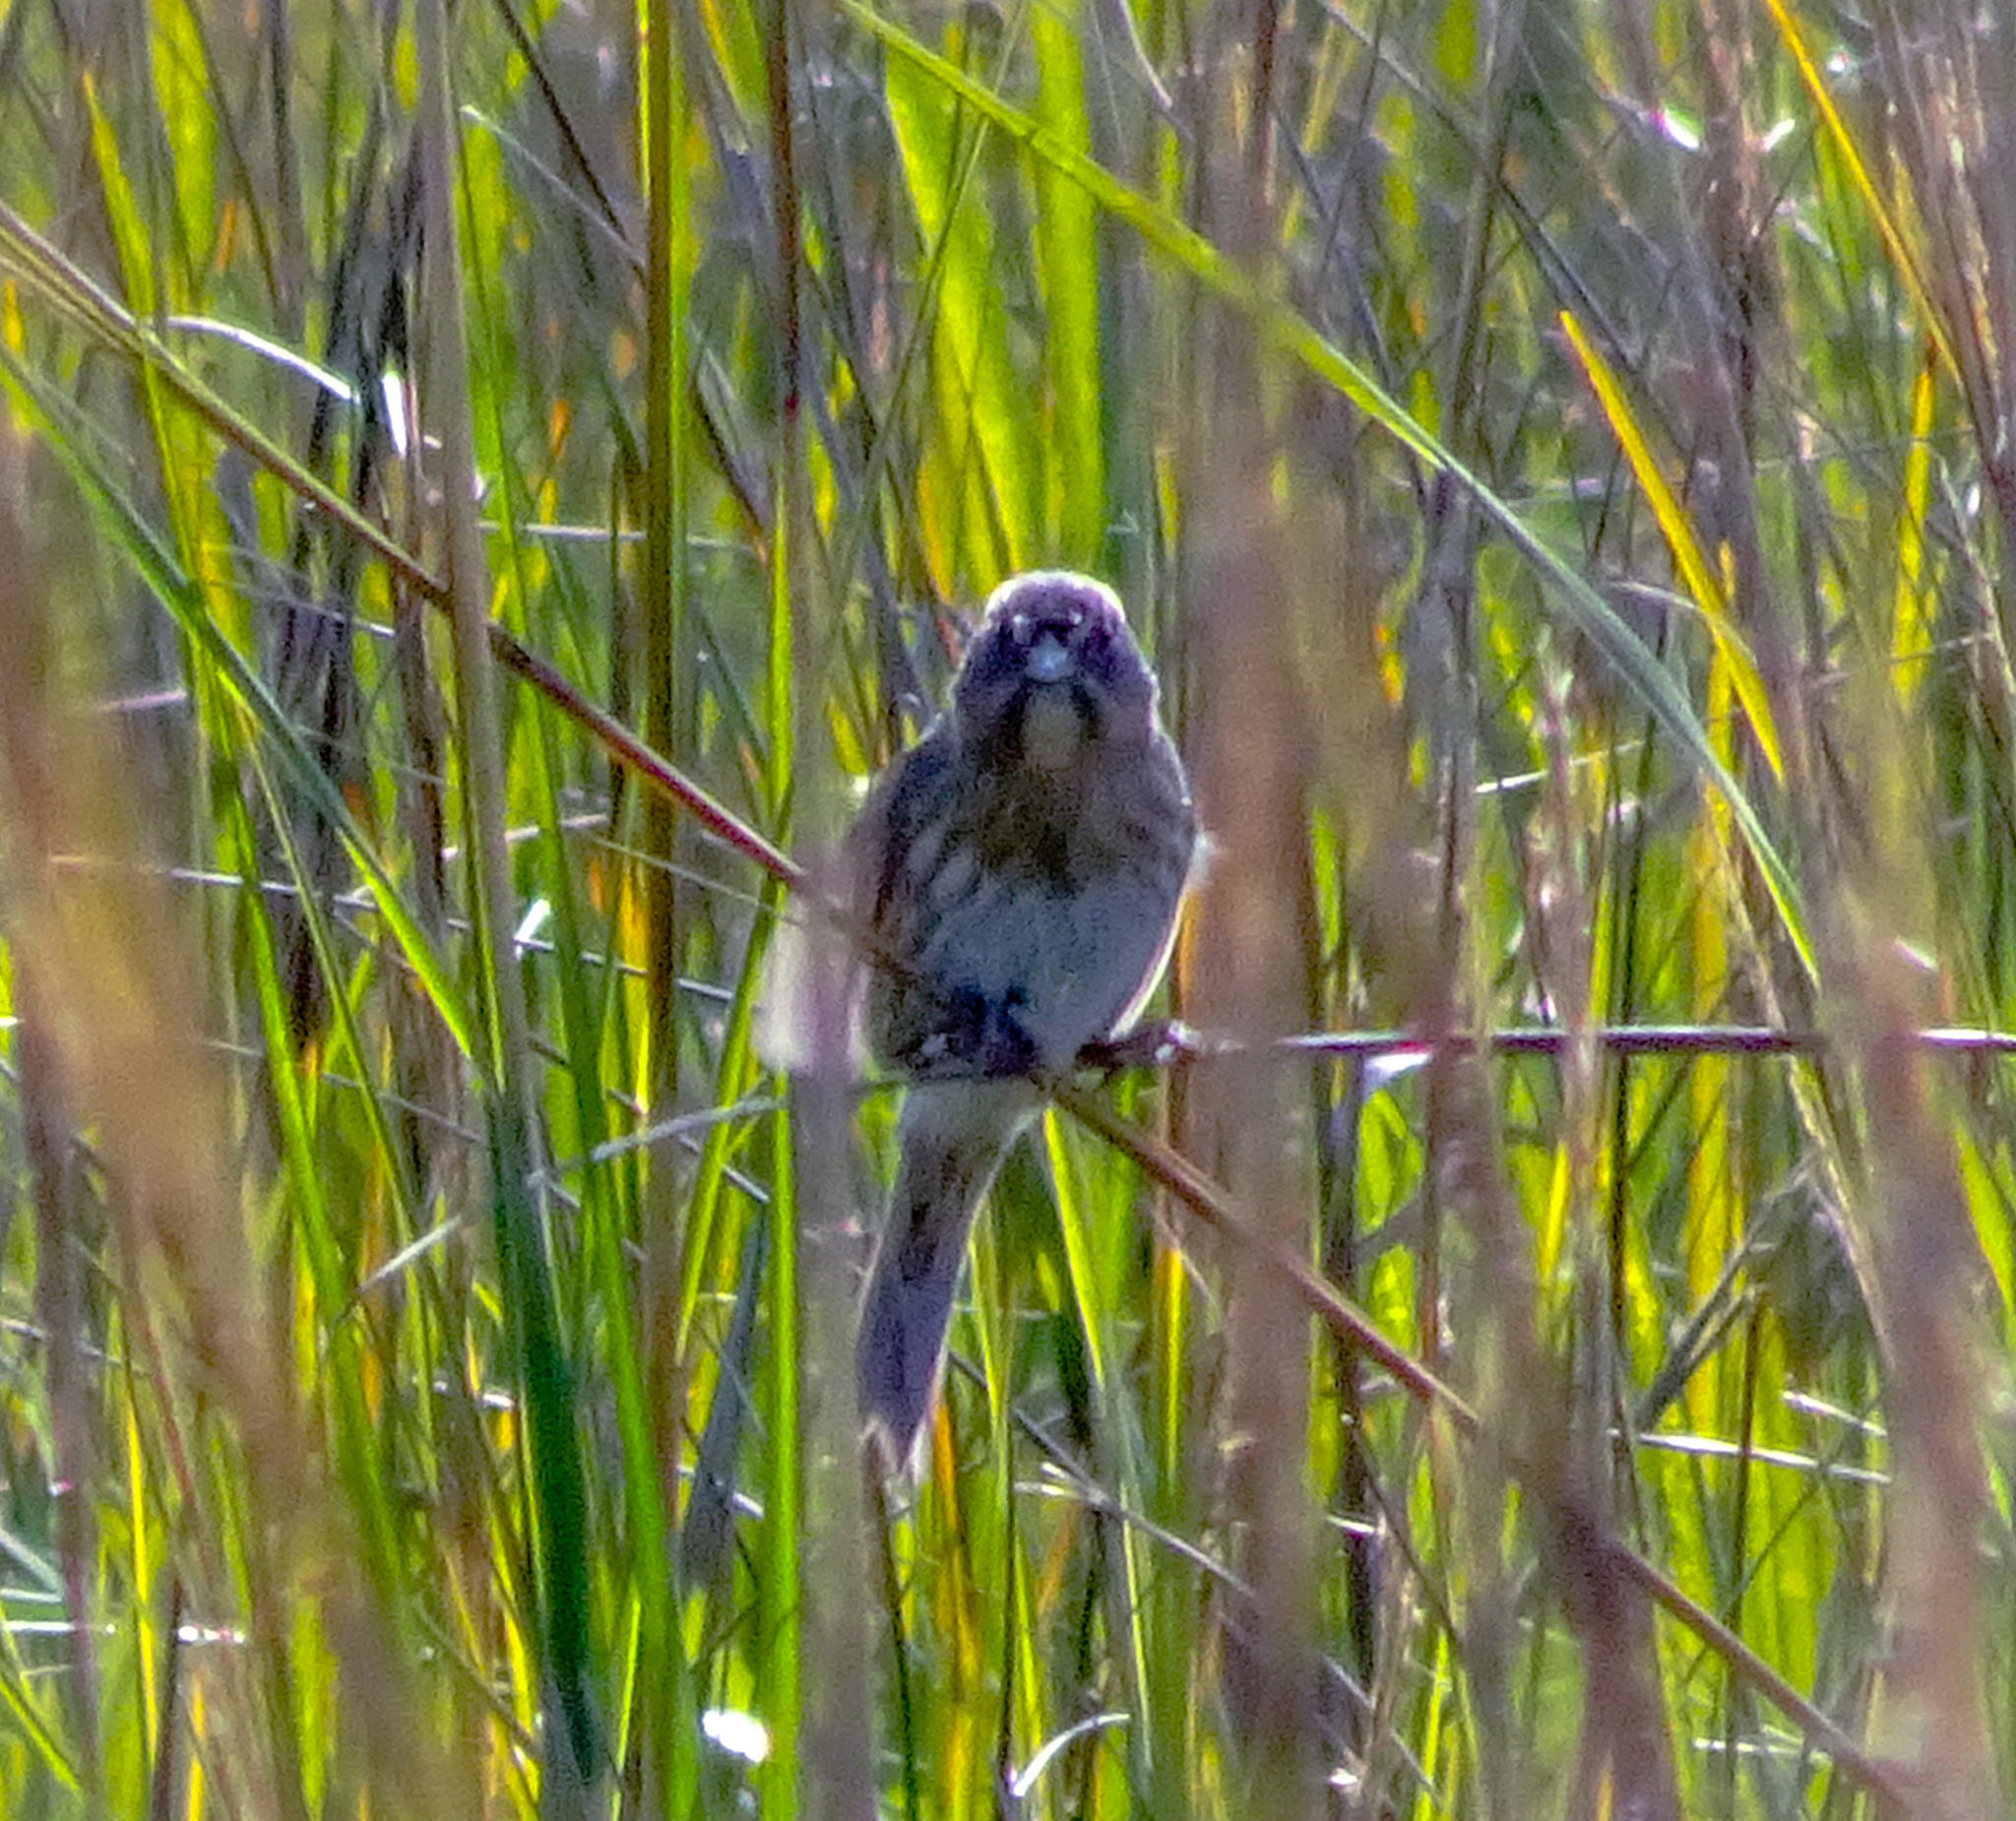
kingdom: Animalia
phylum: Chordata
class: Aves
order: Passeriformes
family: Passerellidae
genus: Ammospiza
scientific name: Ammospiza maritima
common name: Seaside sparrow
